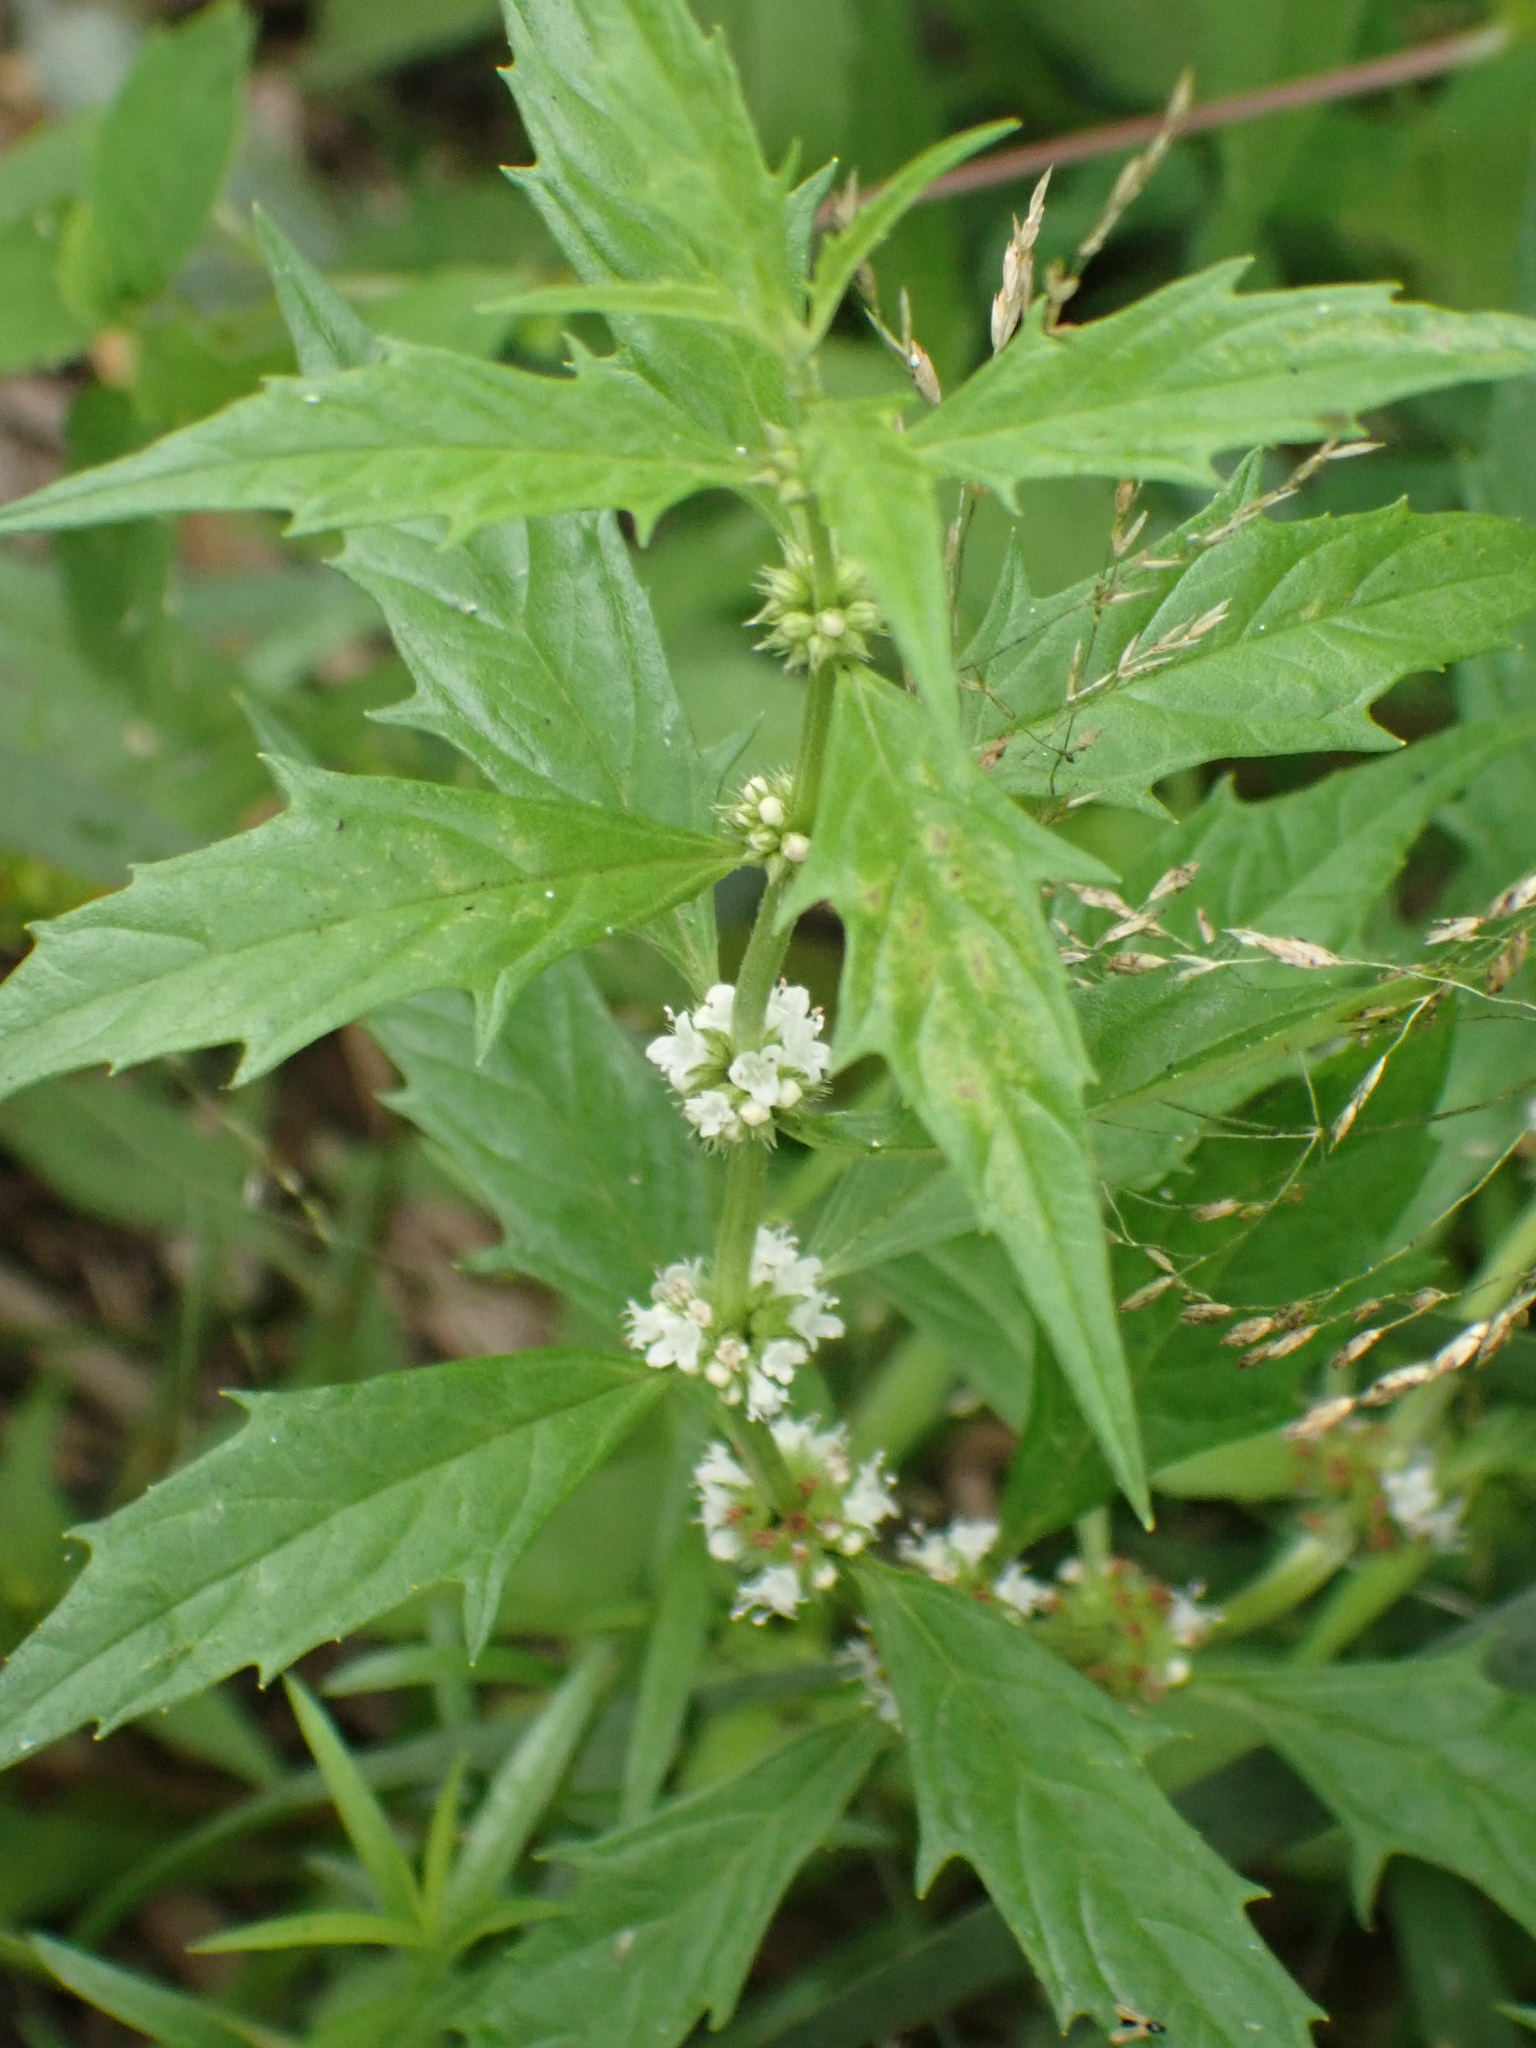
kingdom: Plantae
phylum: Tracheophyta
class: Magnoliopsida
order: Lamiales
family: Lamiaceae
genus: Lycopus
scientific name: Lycopus uniflorus
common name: Northern bugleweed
